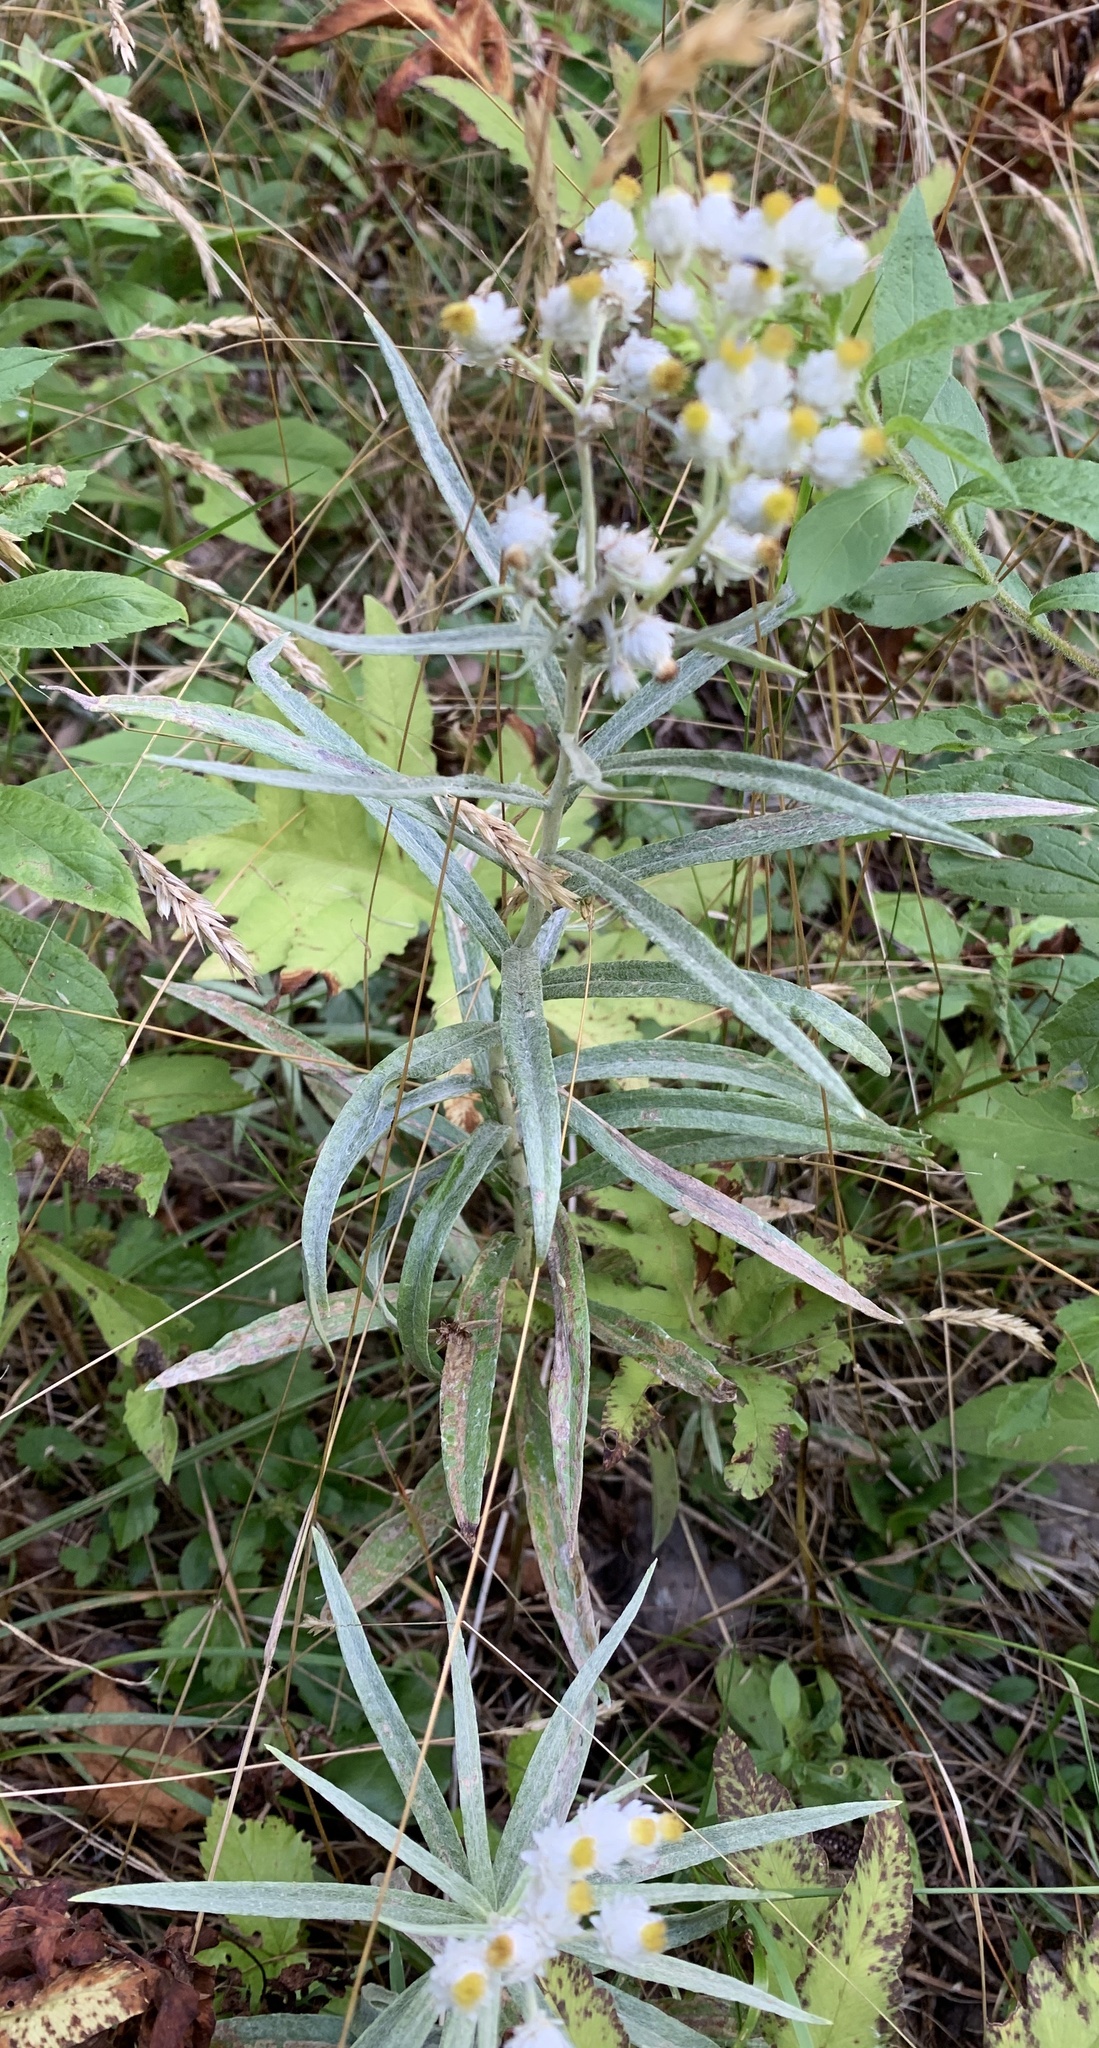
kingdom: Plantae
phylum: Tracheophyta
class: Magnoliopsida
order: Asterales
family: Asteraceae
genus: Anaphalis
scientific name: Anaphalis margaritacea
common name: Pearly everlasting
